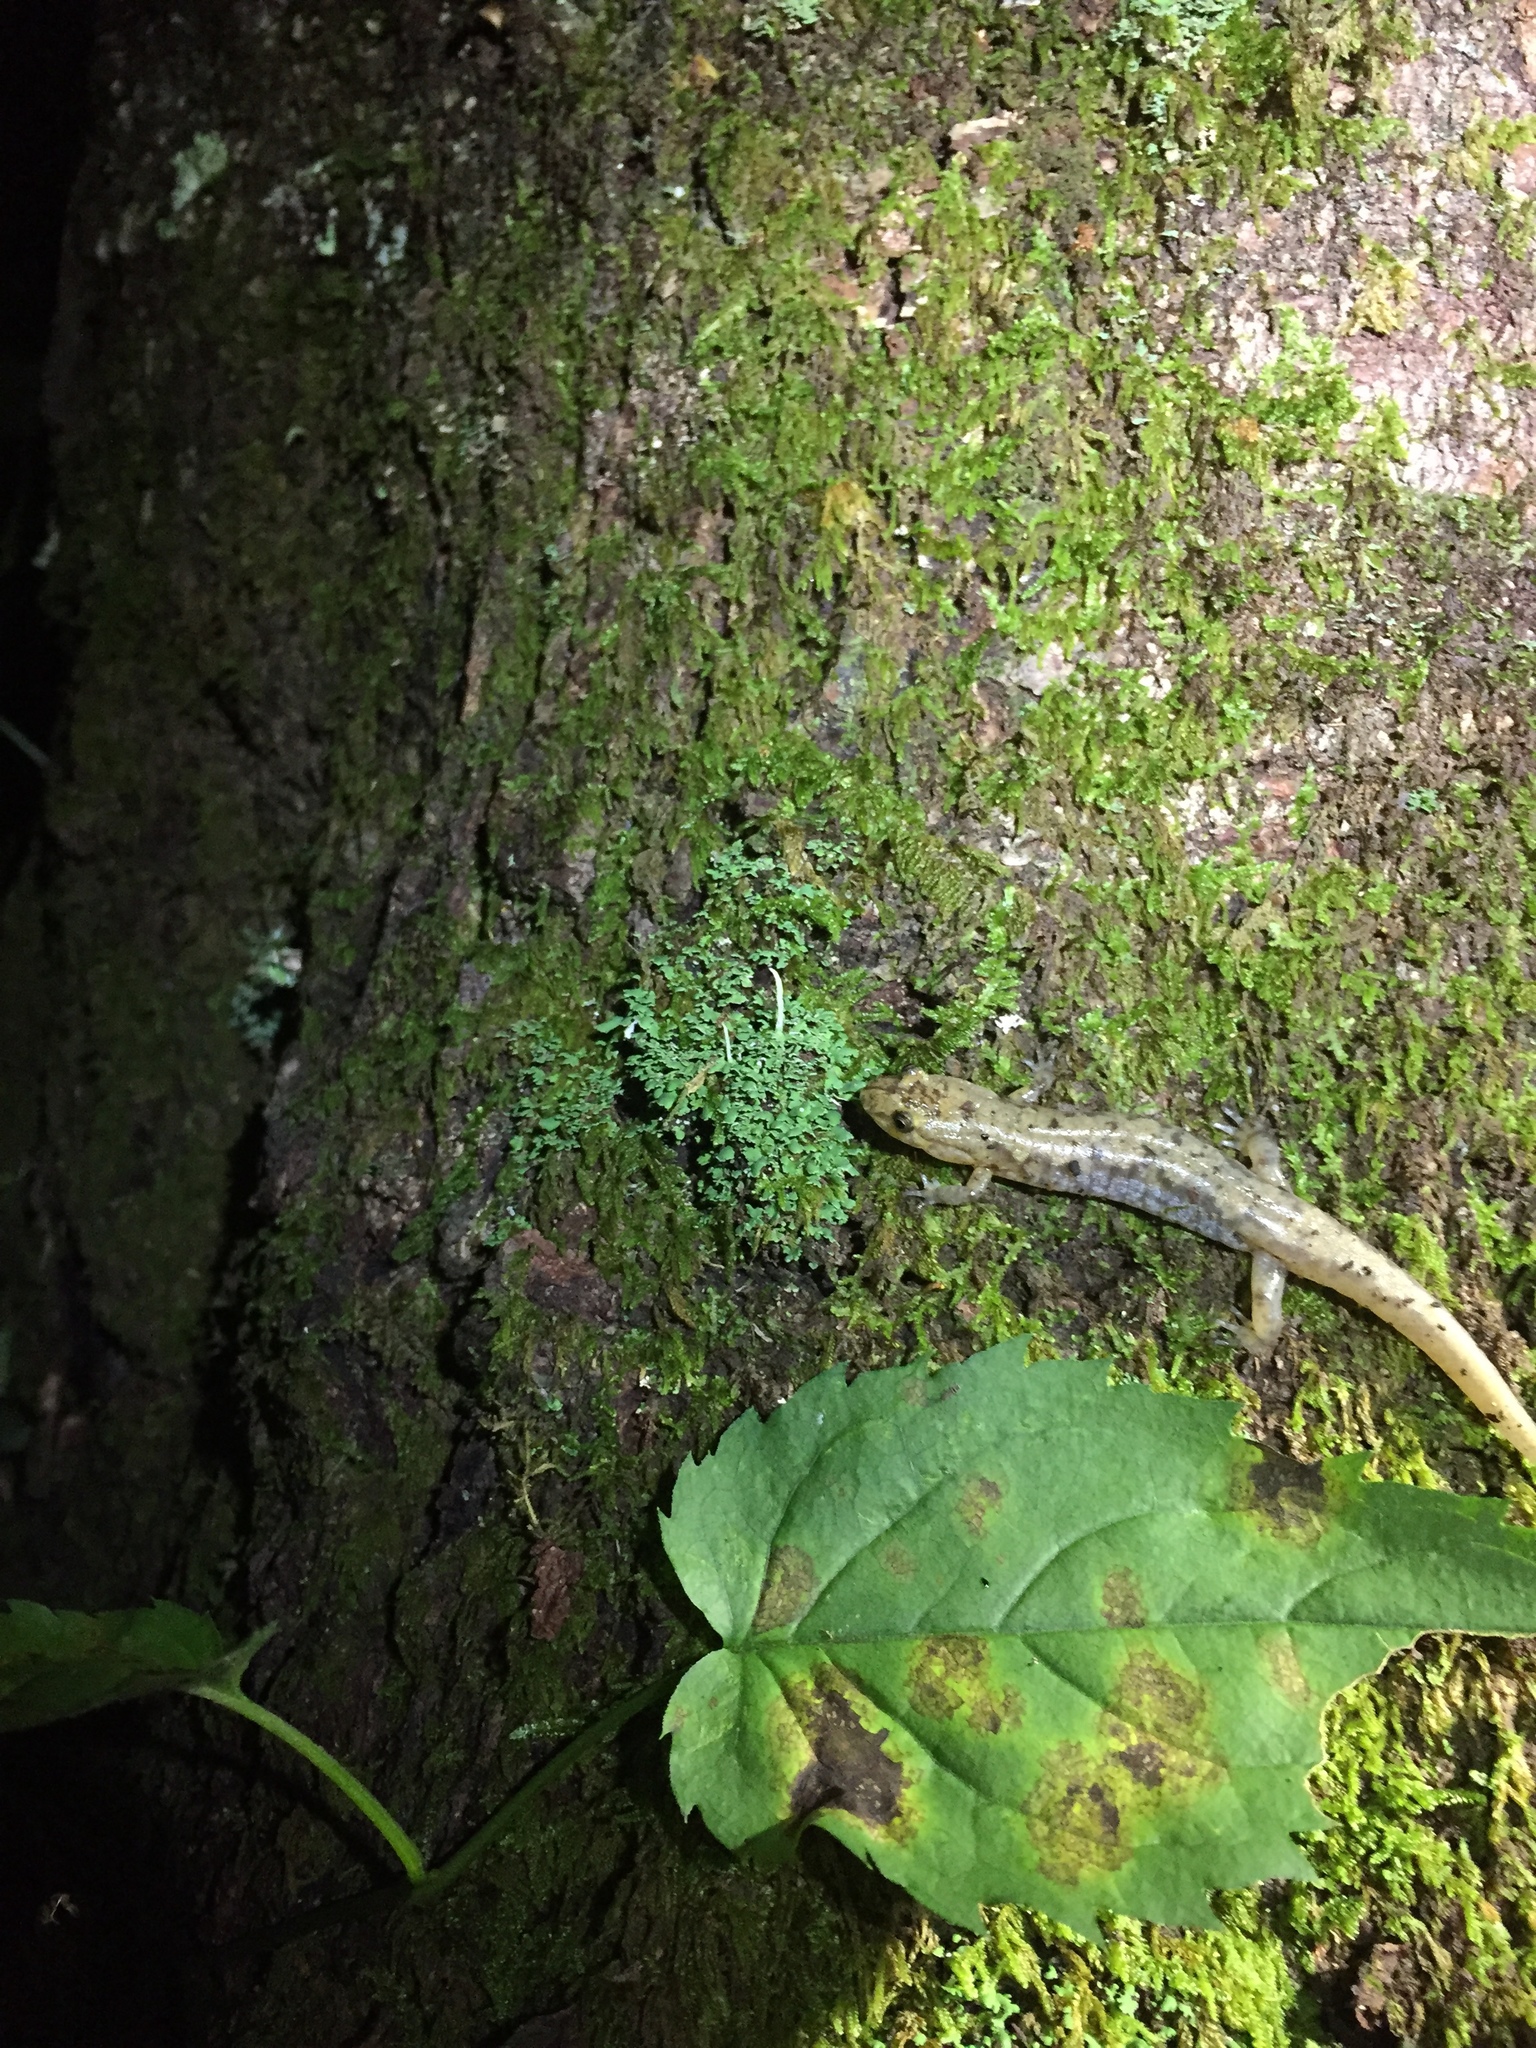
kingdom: Animalia
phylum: Chordata
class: Amphibia
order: Caudata
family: Plethodontidae
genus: Desmognathus
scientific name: Desmognathus ocoee
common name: Ocoee salamander
